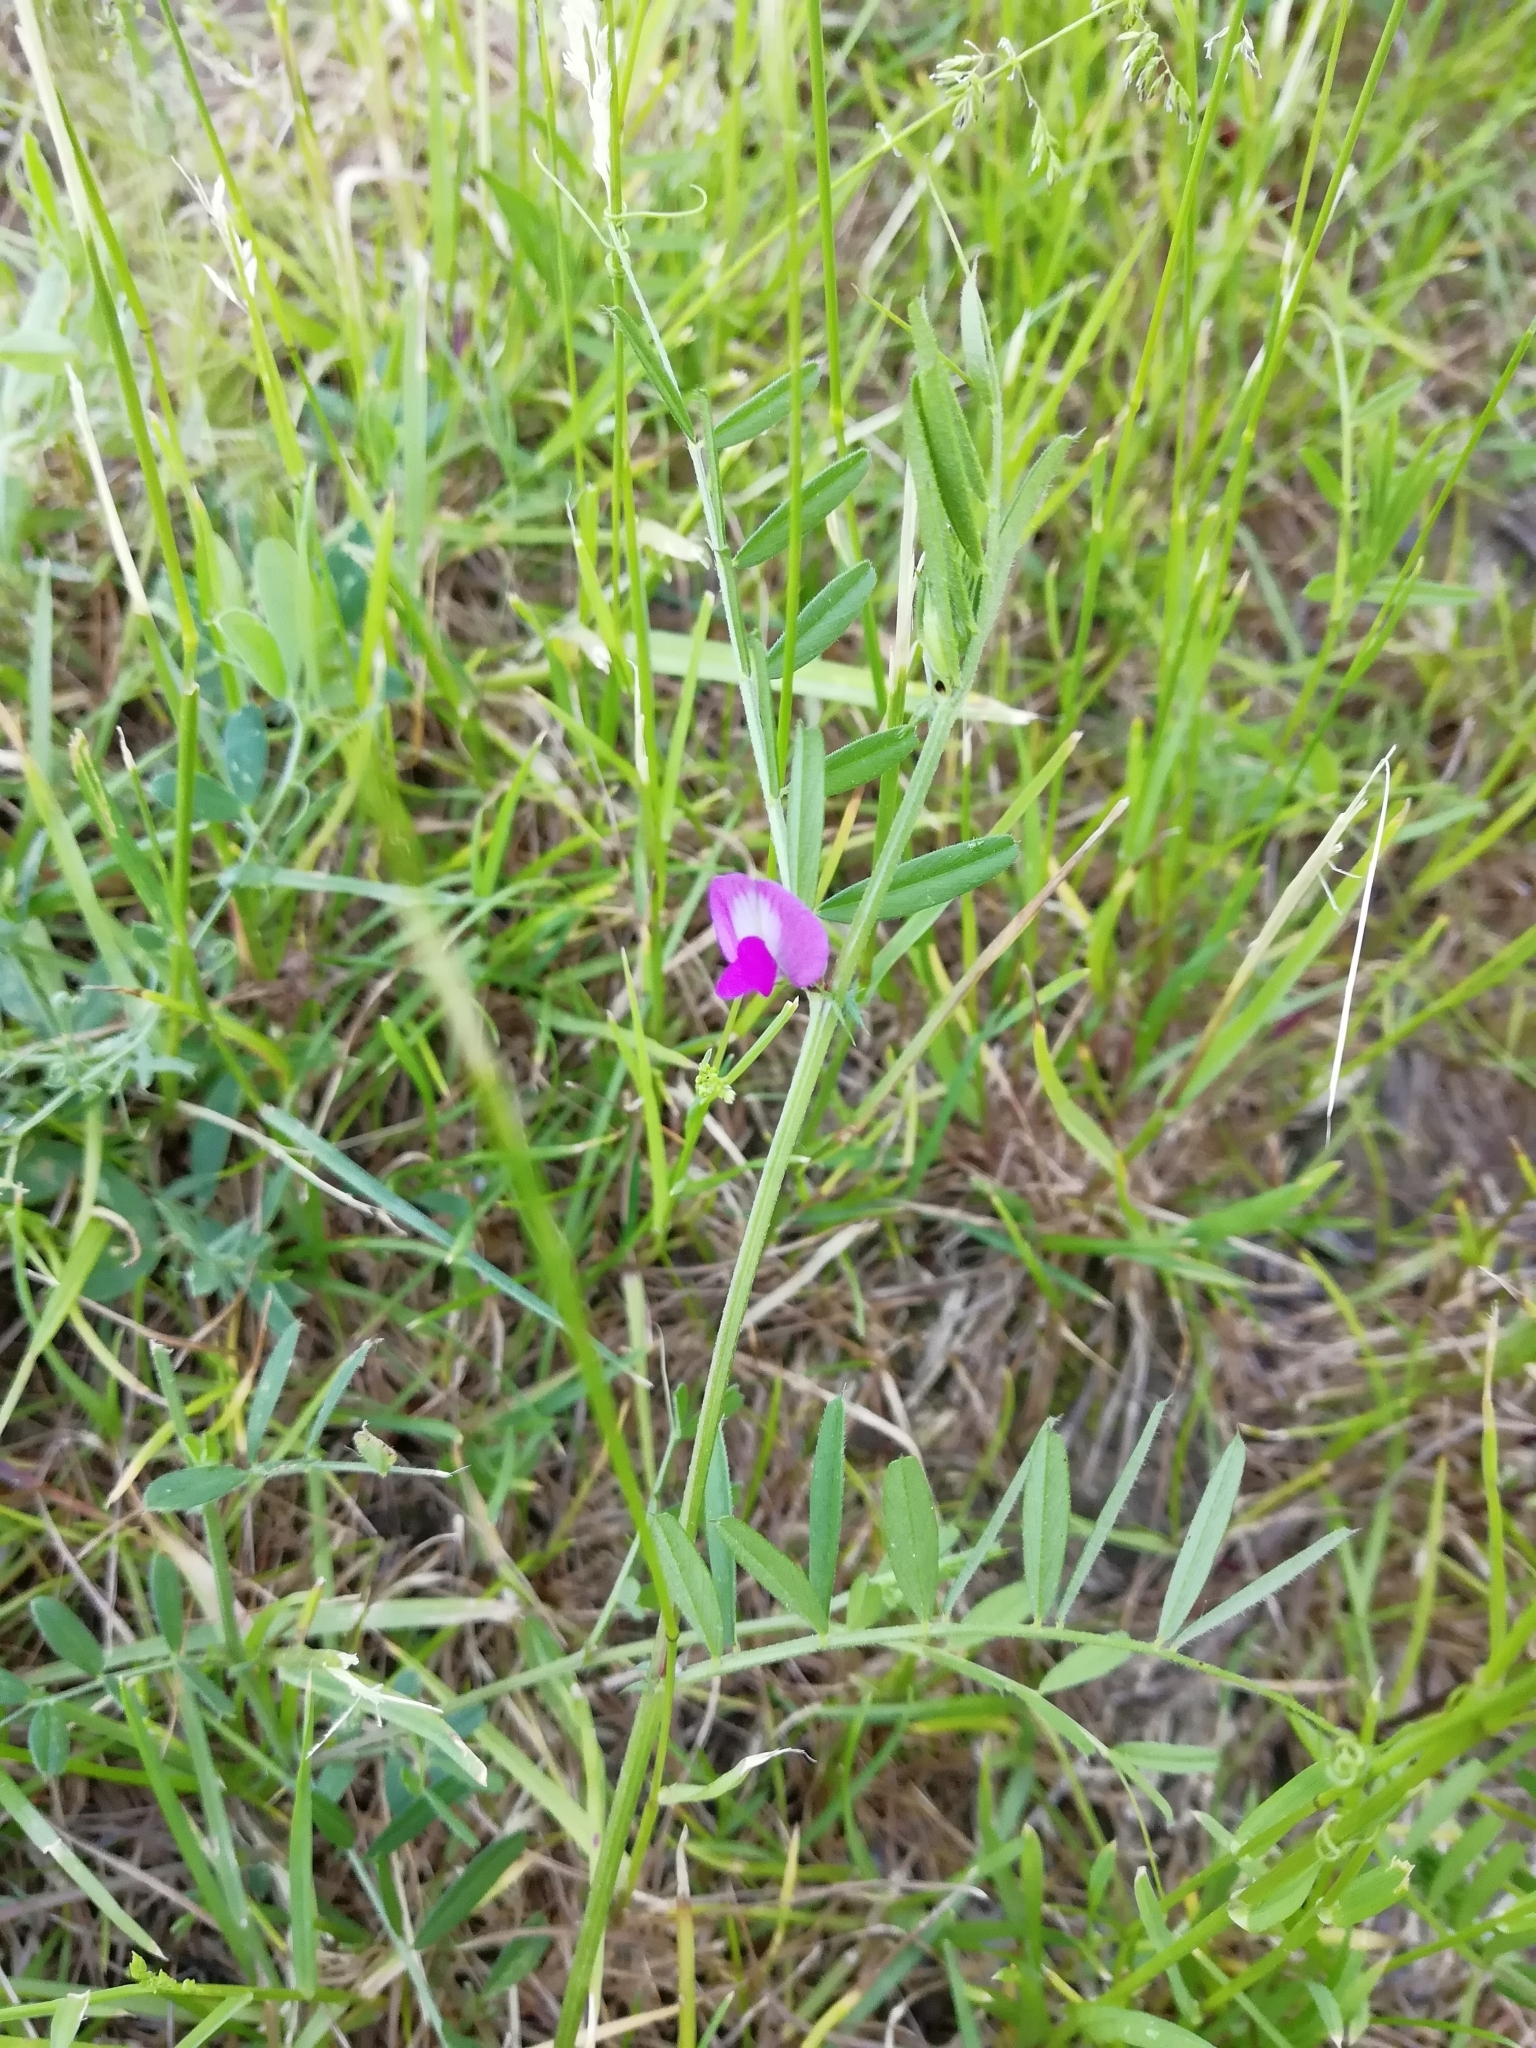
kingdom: Plantae
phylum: Tracheophyta
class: Magnoliopsida
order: Fabales
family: Fabaceae
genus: Vicia
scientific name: Vicia sativa
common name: Garden vetch
